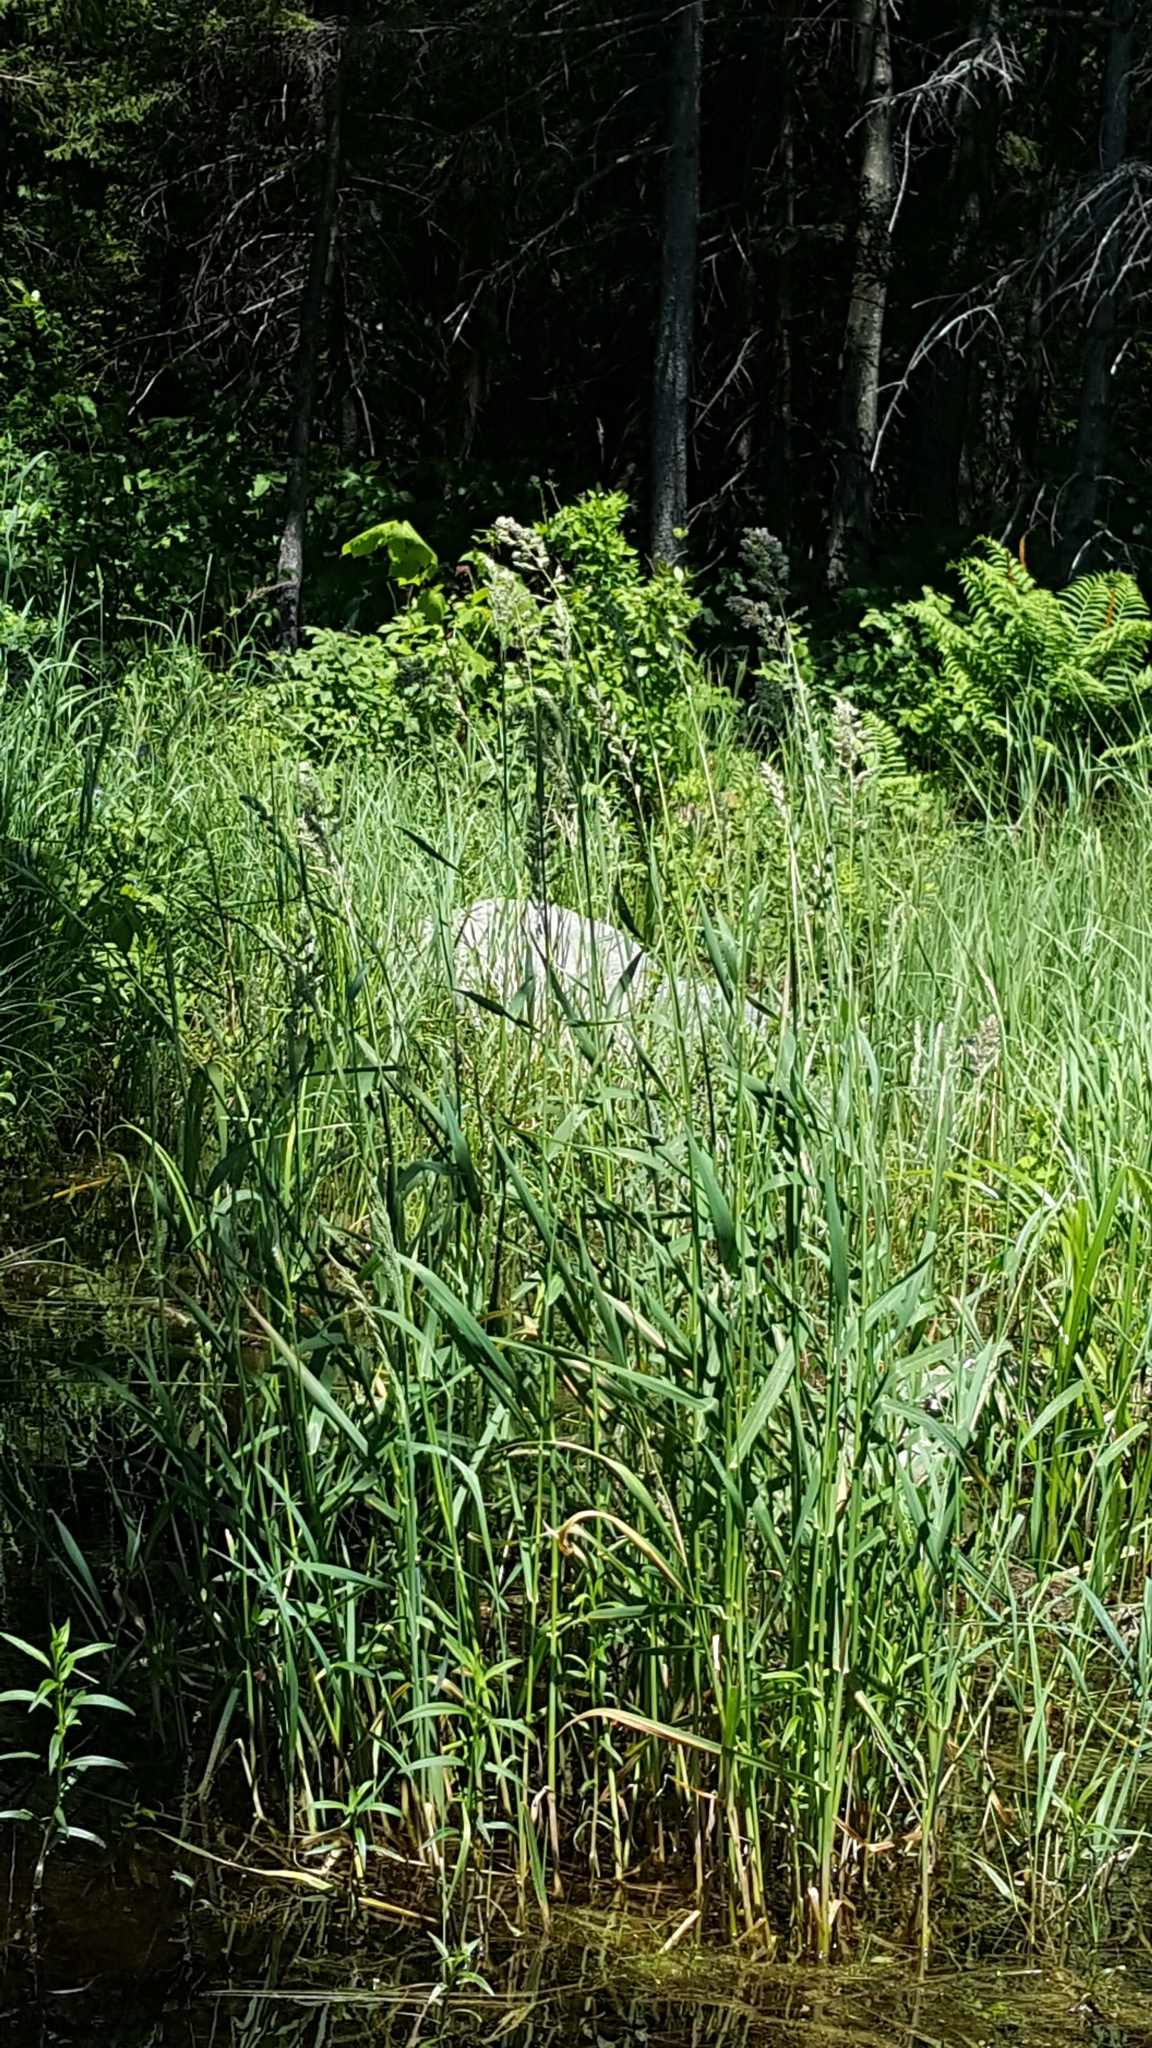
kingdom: Plantae
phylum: Tracheophyta
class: Liliopsida
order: Poales
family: Poaceae
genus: Phalaris
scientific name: Phalaris arundinacea
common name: Reed canary-grass
